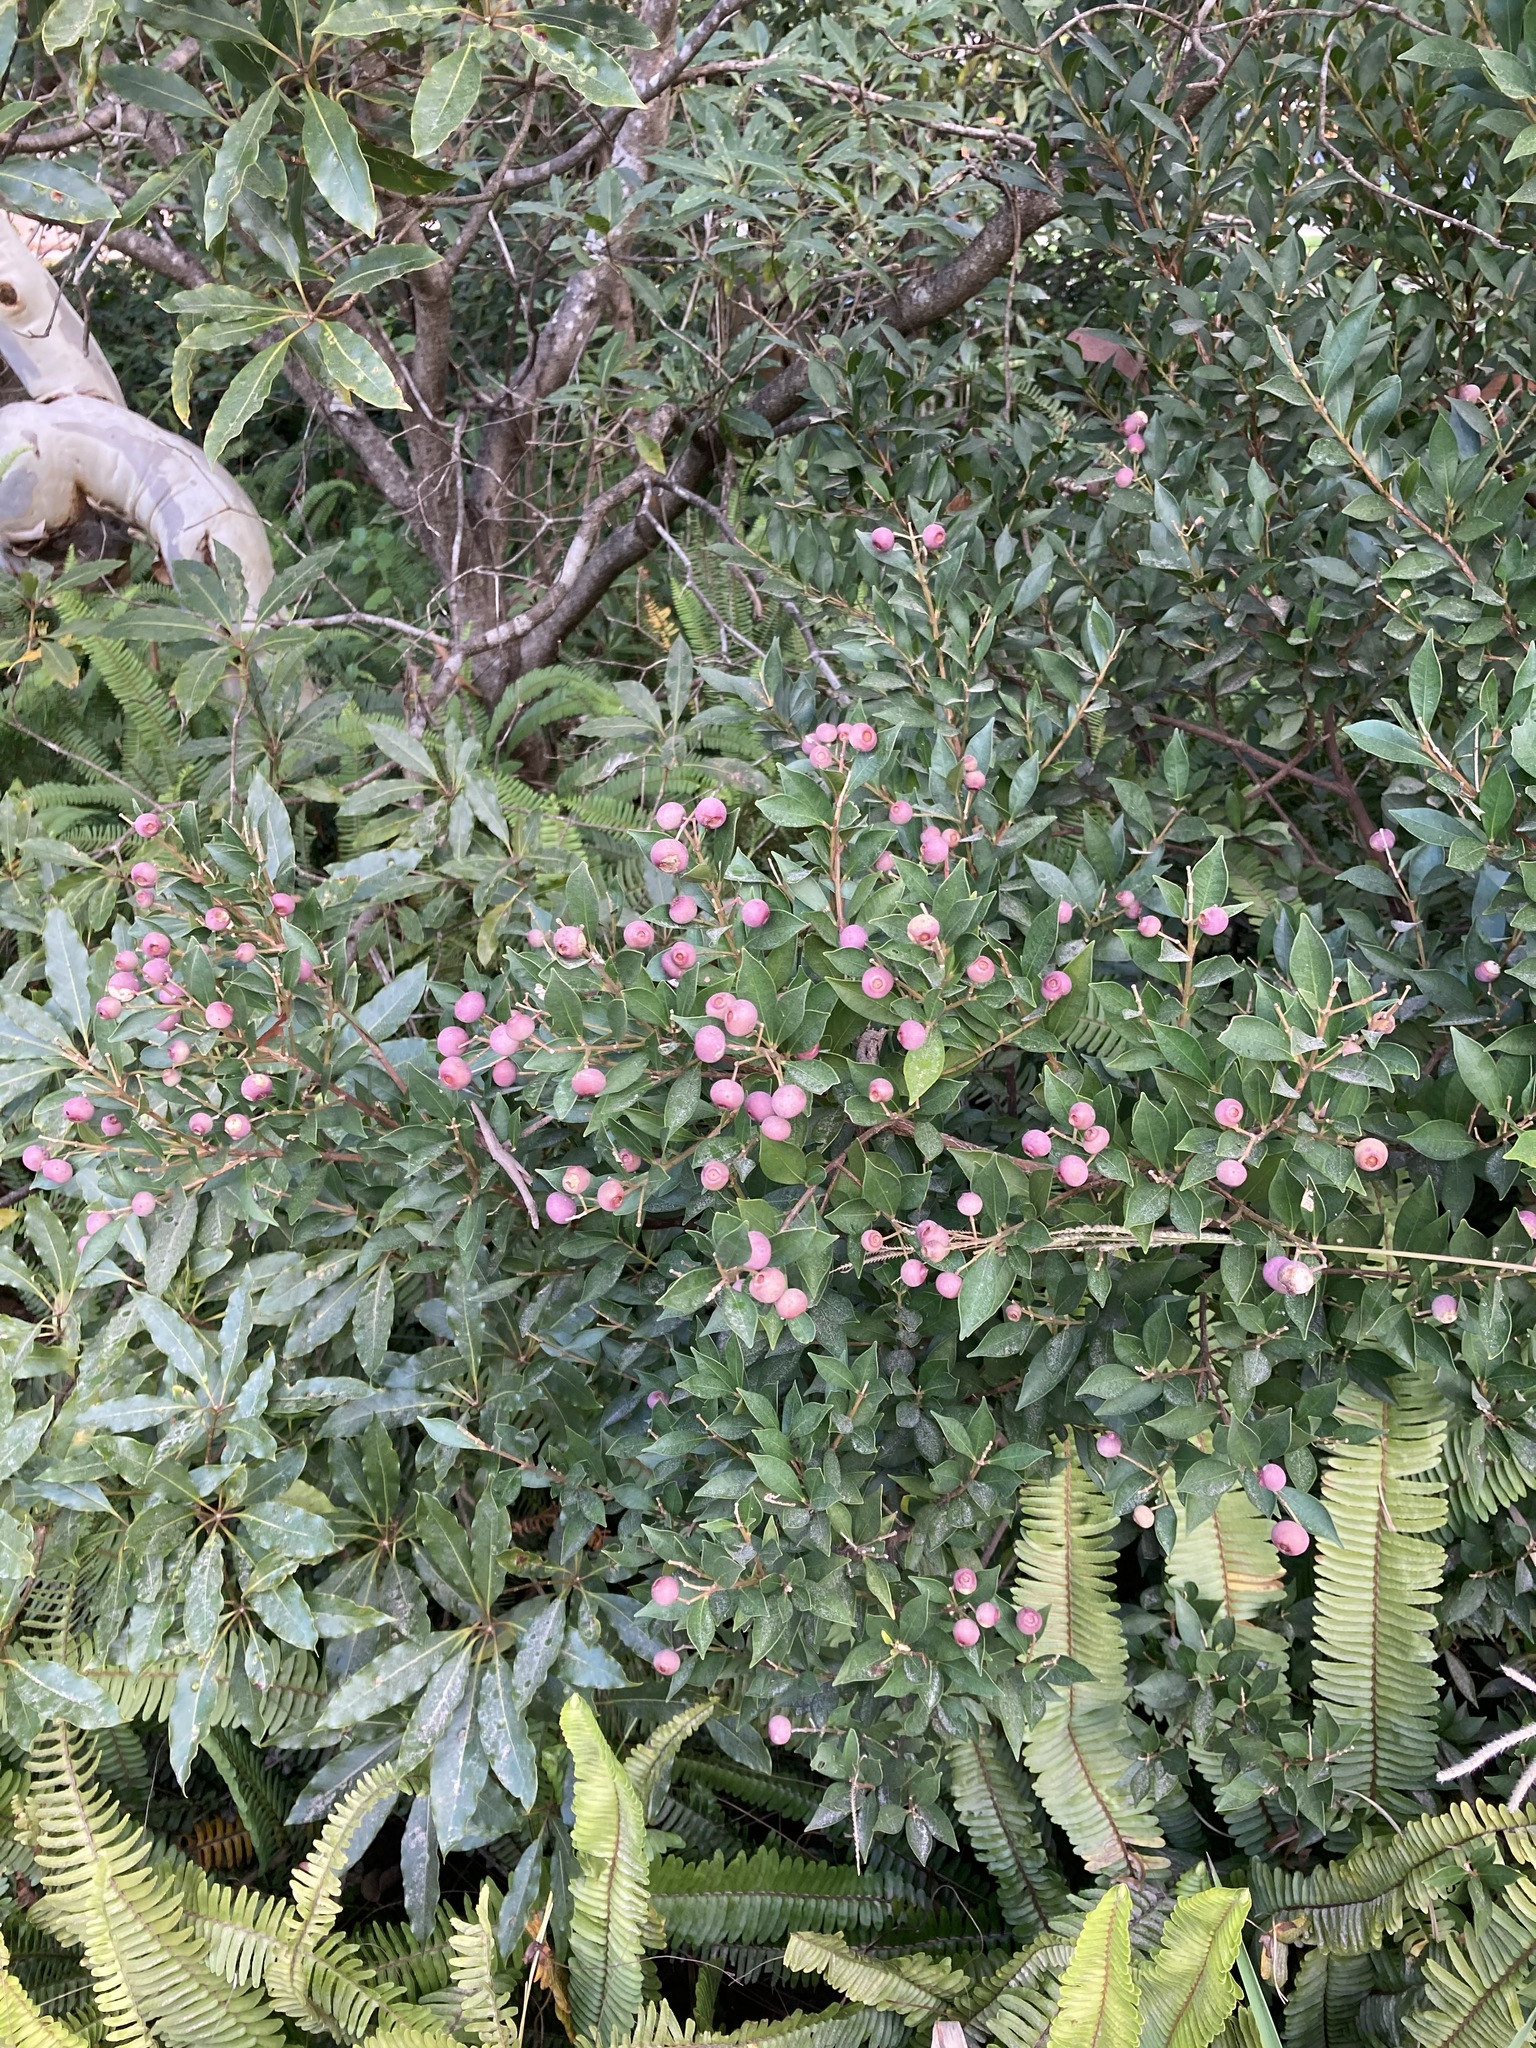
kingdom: Plantae
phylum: Tracheophyta
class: Magnoliopsida
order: Myrtales
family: Myrtaceae
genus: Syzygium
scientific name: Syzygium smithii
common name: Lilly-pilly
